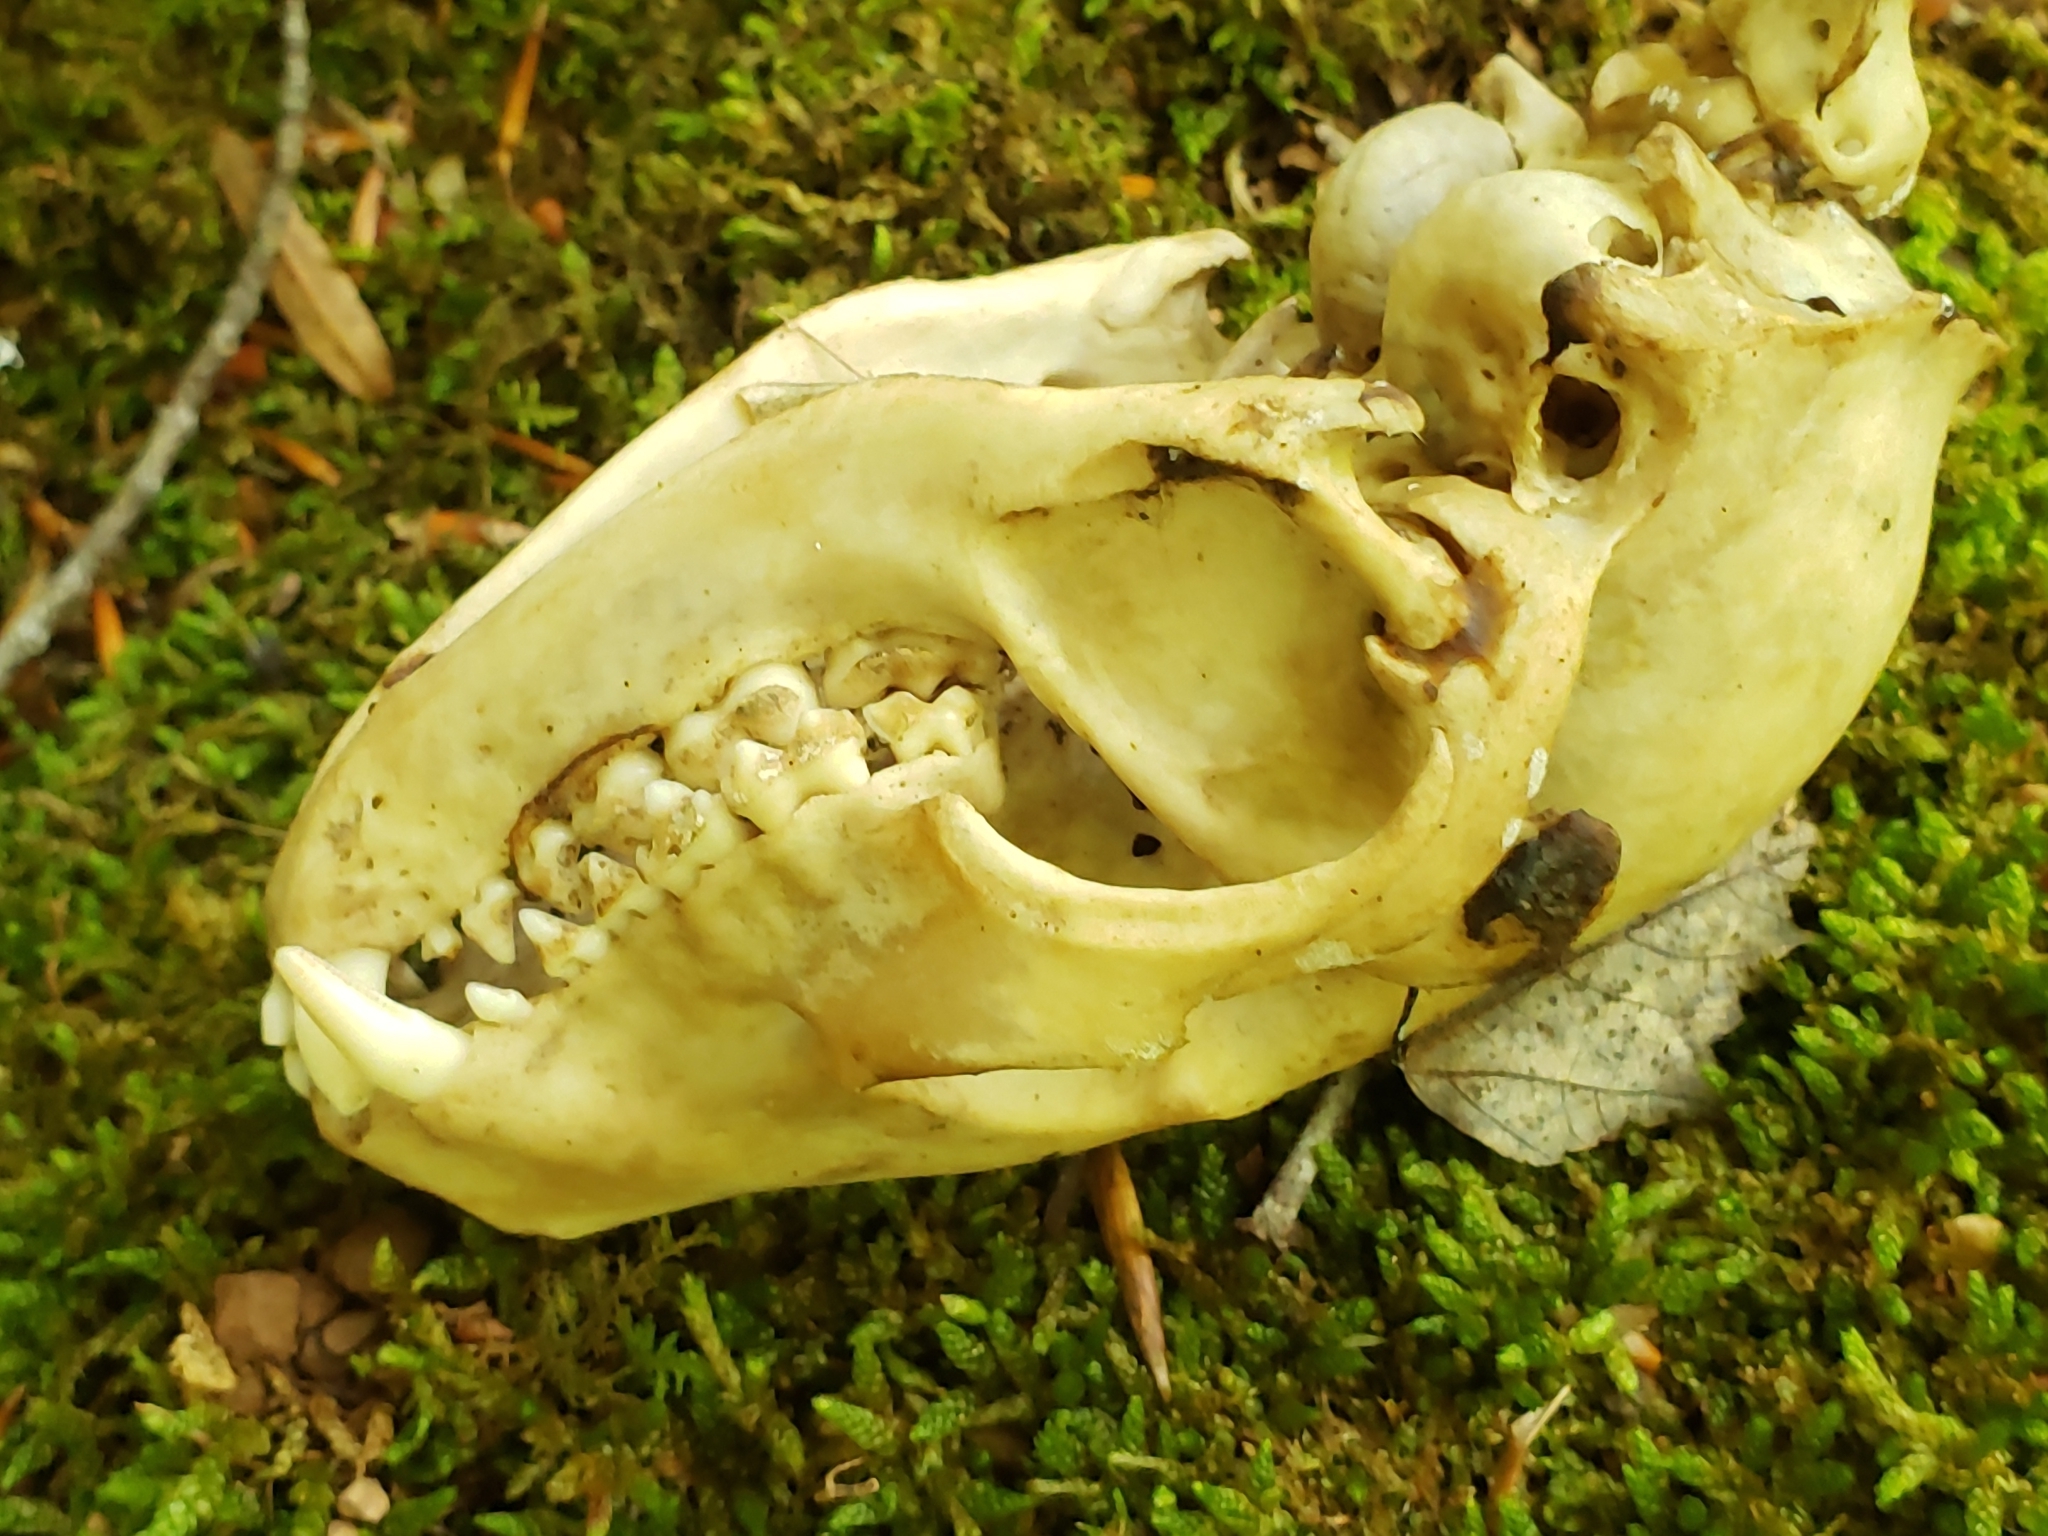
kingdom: Animalia
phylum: Chordata
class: Mammalia
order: Carnivora
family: Procyonidae
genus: Procyon
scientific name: Procyon lotor
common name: Raccoon
